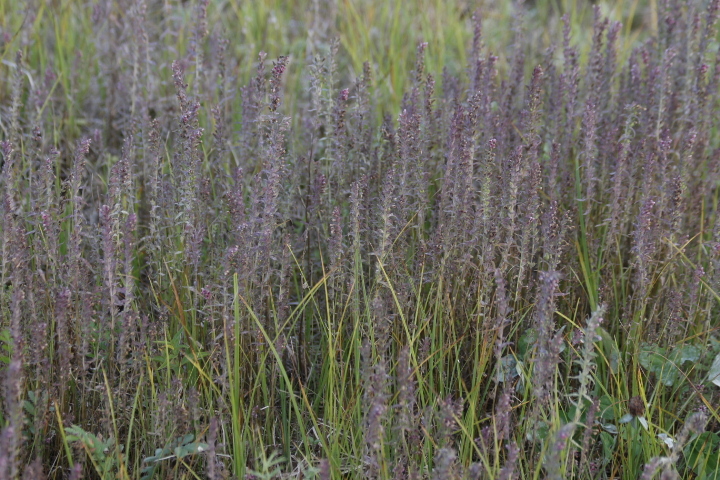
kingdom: Plantae
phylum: Tracheophyta
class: Magnoliopsida
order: Lamiales
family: Orobanchaceae
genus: Odontites
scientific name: Odontites vulgaris
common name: Broomrape
